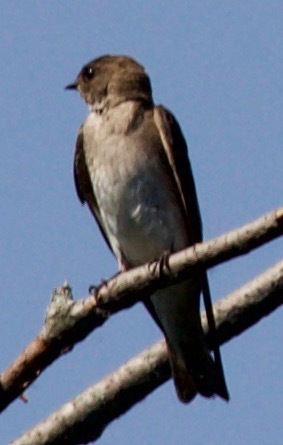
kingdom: Animalia
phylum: Chordata
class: Aves
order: Passeriformes
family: Hirundinidae
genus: Stelgidopteryx
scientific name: Stelgidopteryx serripennis
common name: Northern rough-winged swallow
